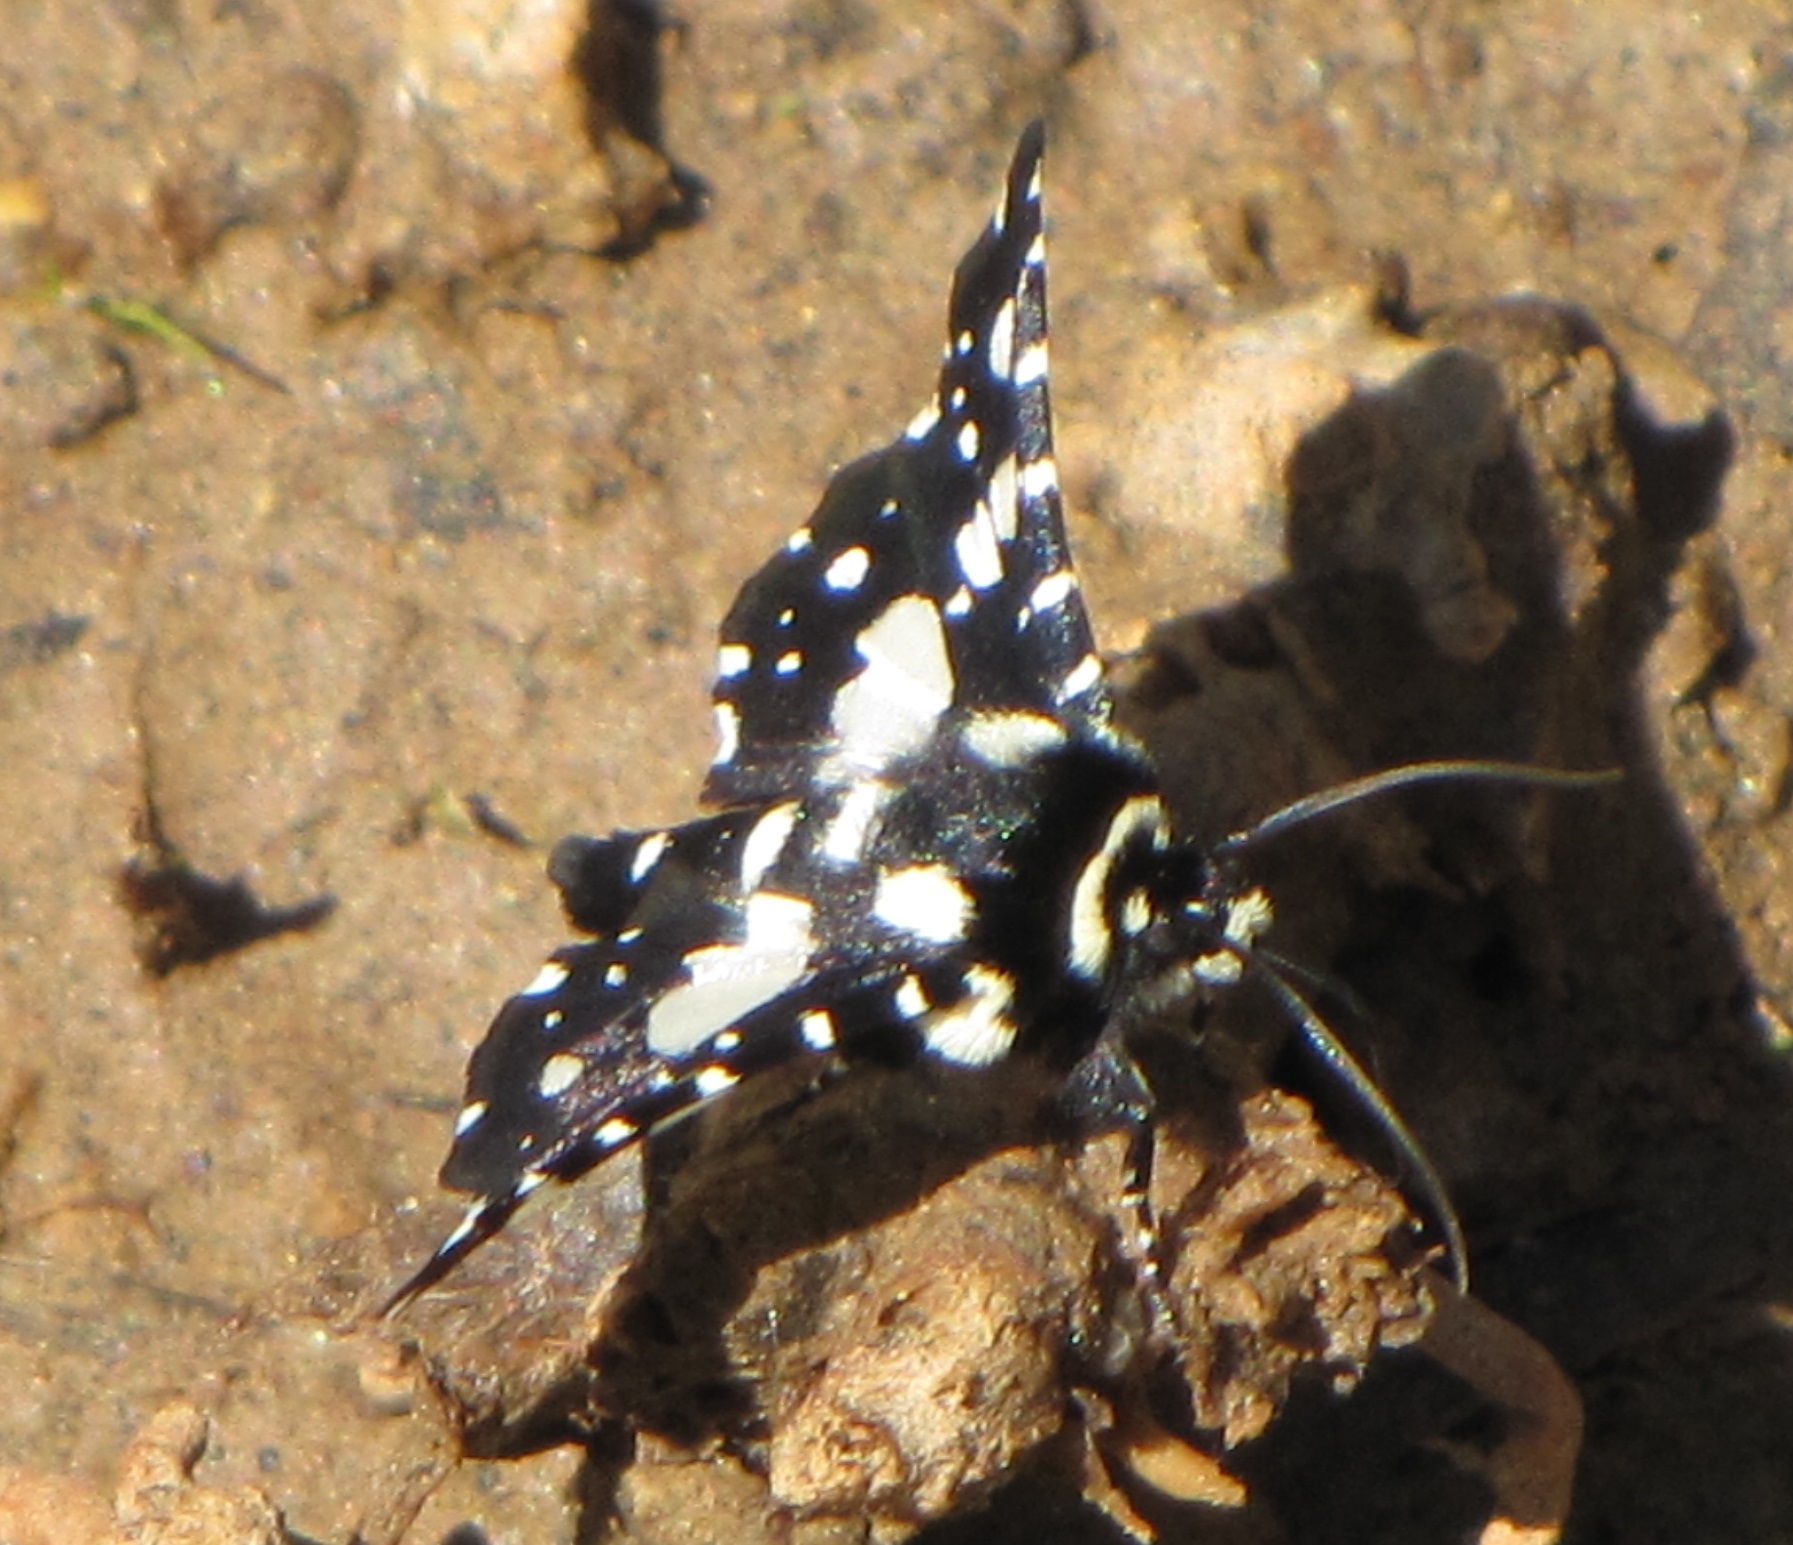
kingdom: Animalia
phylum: Arthropoda
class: Insecta
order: Lepidoptera
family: Thyrididae
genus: Pseudothyris
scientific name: Pseudothyris sepulchralis
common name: Mournful thyris moth
